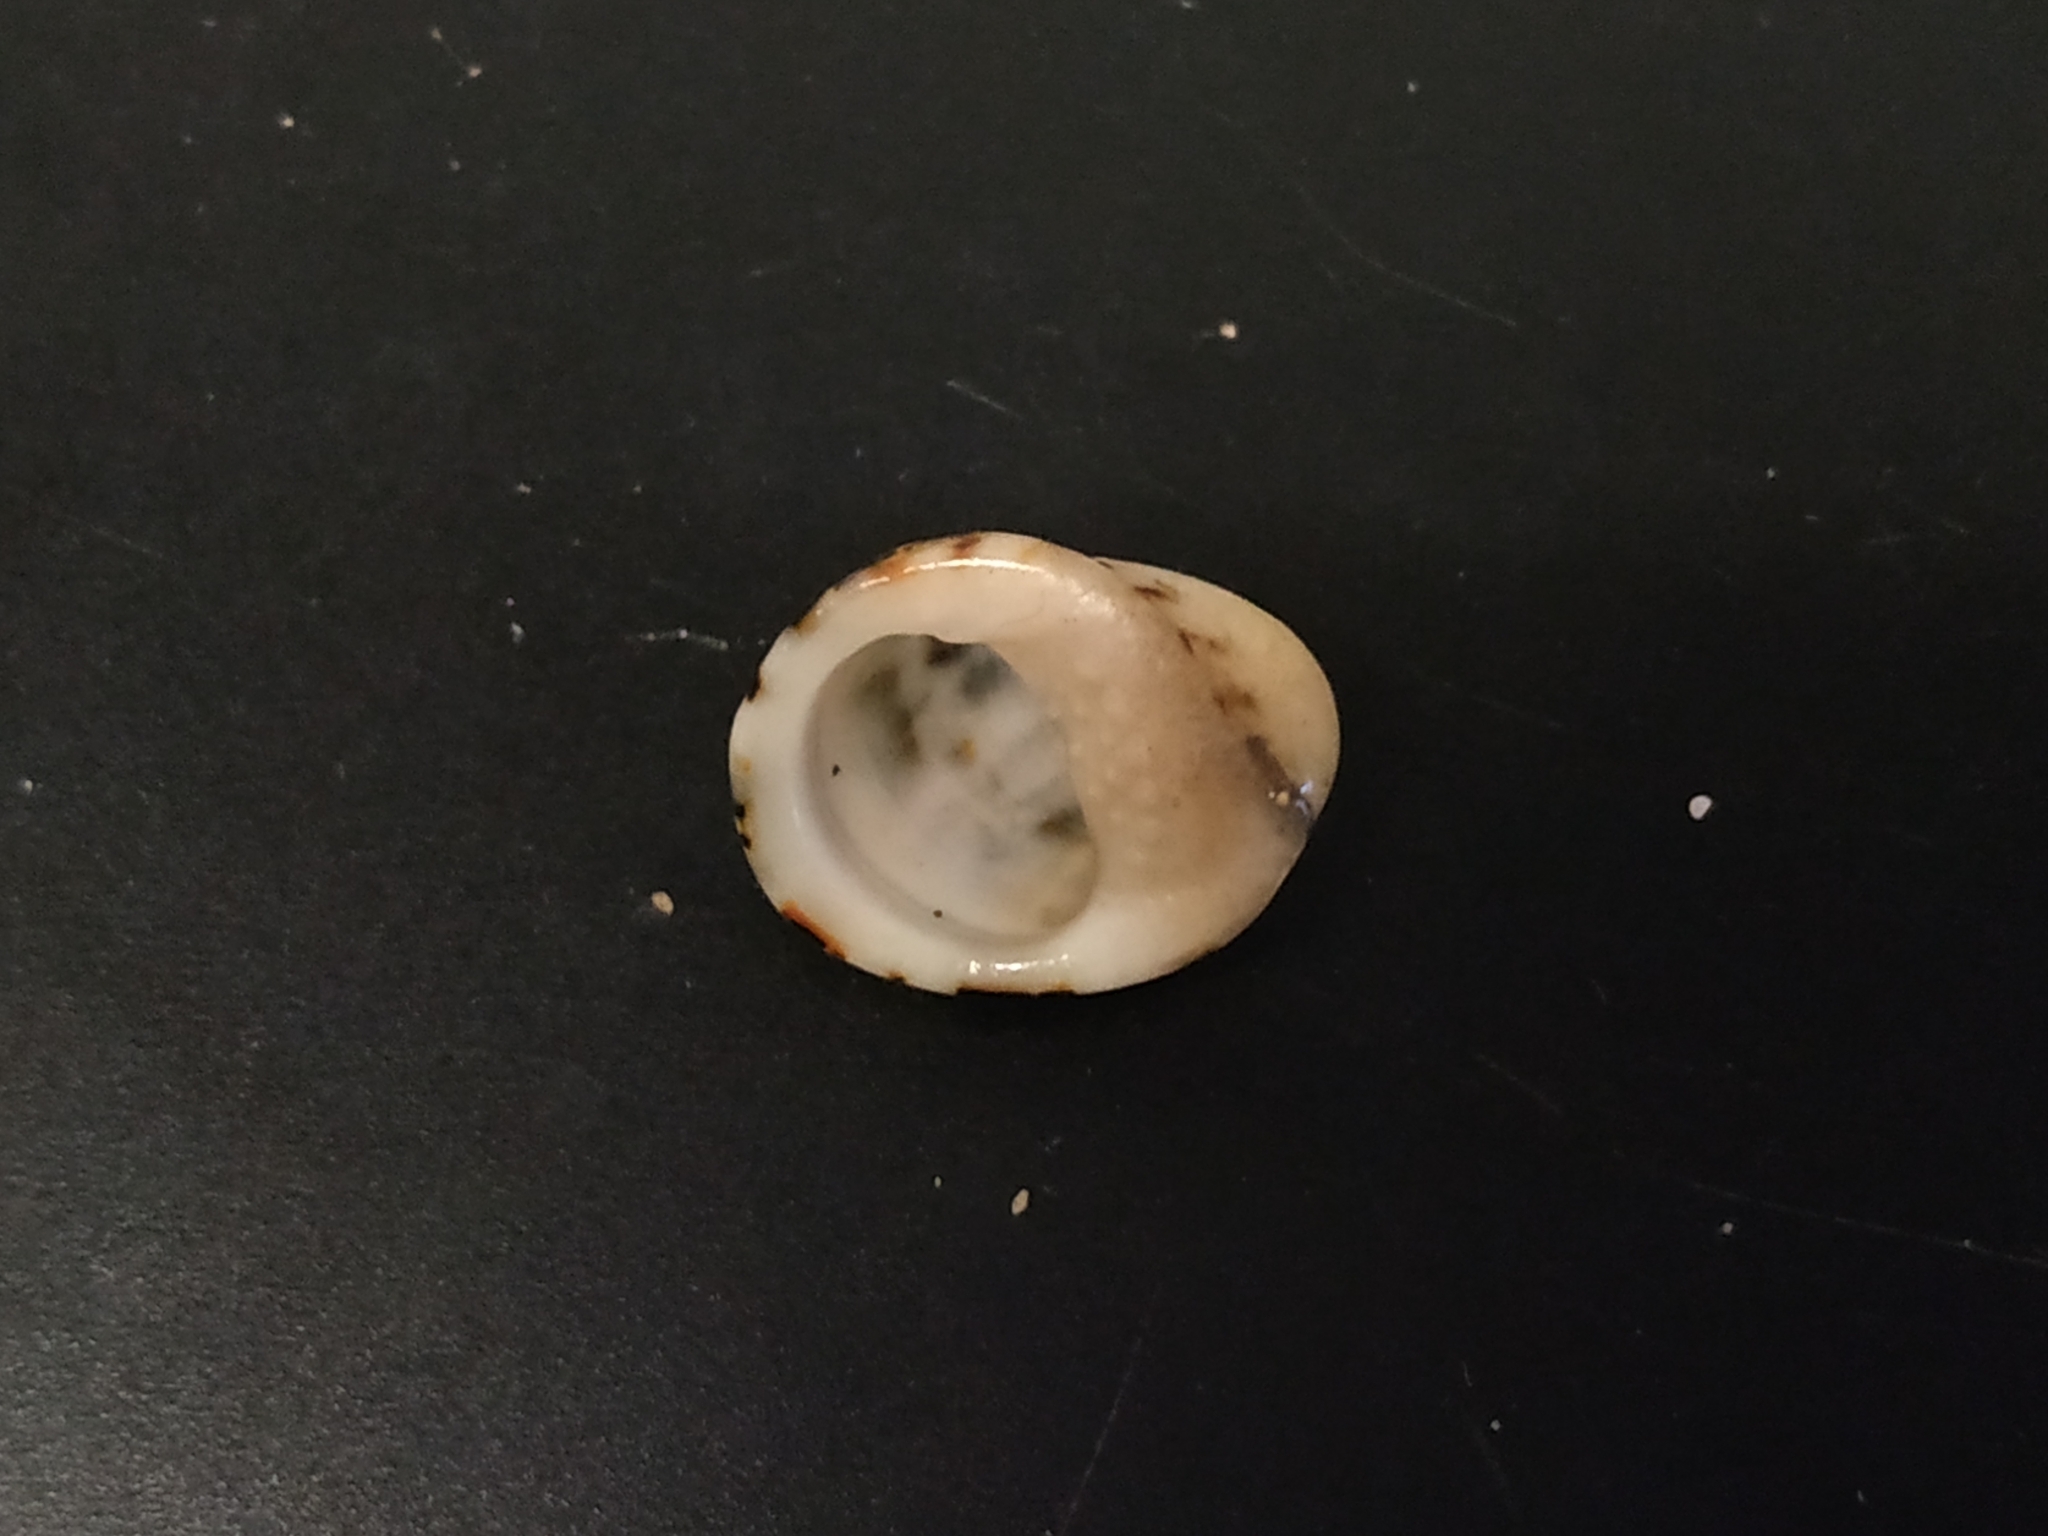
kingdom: Animalia
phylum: Mollusca
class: Gastropoda
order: Cycloneritida
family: Neritidae
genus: Nerita
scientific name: Nerita albicilla
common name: Blotched nerite
